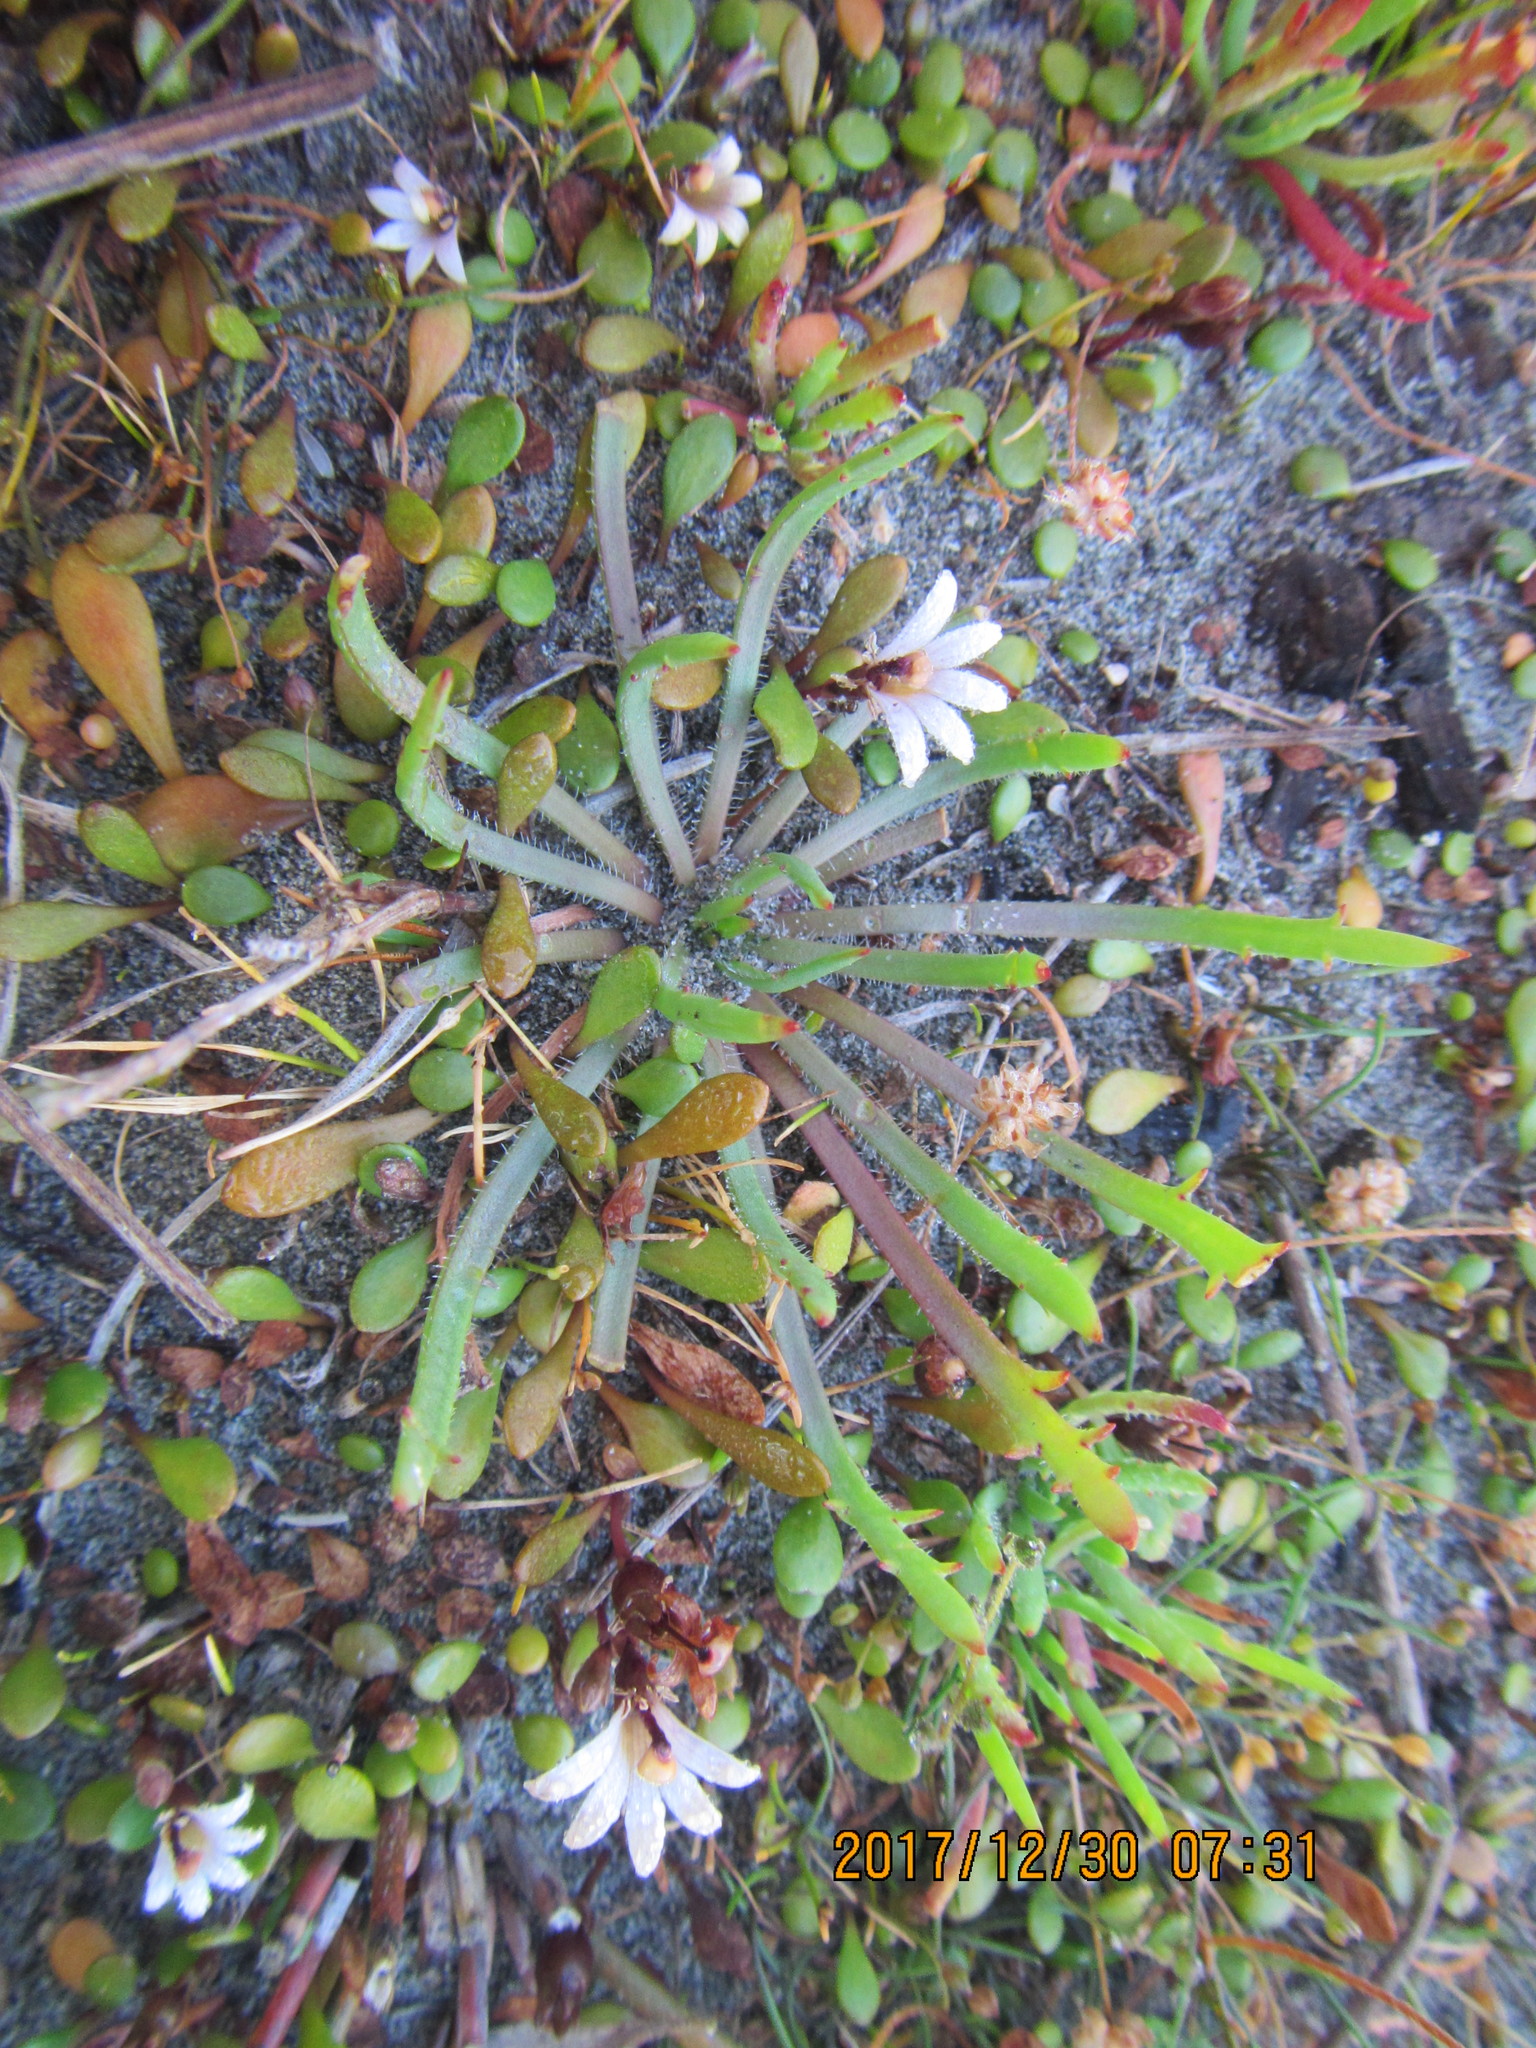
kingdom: Plantae
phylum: Tracheophyta
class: Magnoliopsida
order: Asterales
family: Goodeniaceae
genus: Goodenia
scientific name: Goodenia heenanii
